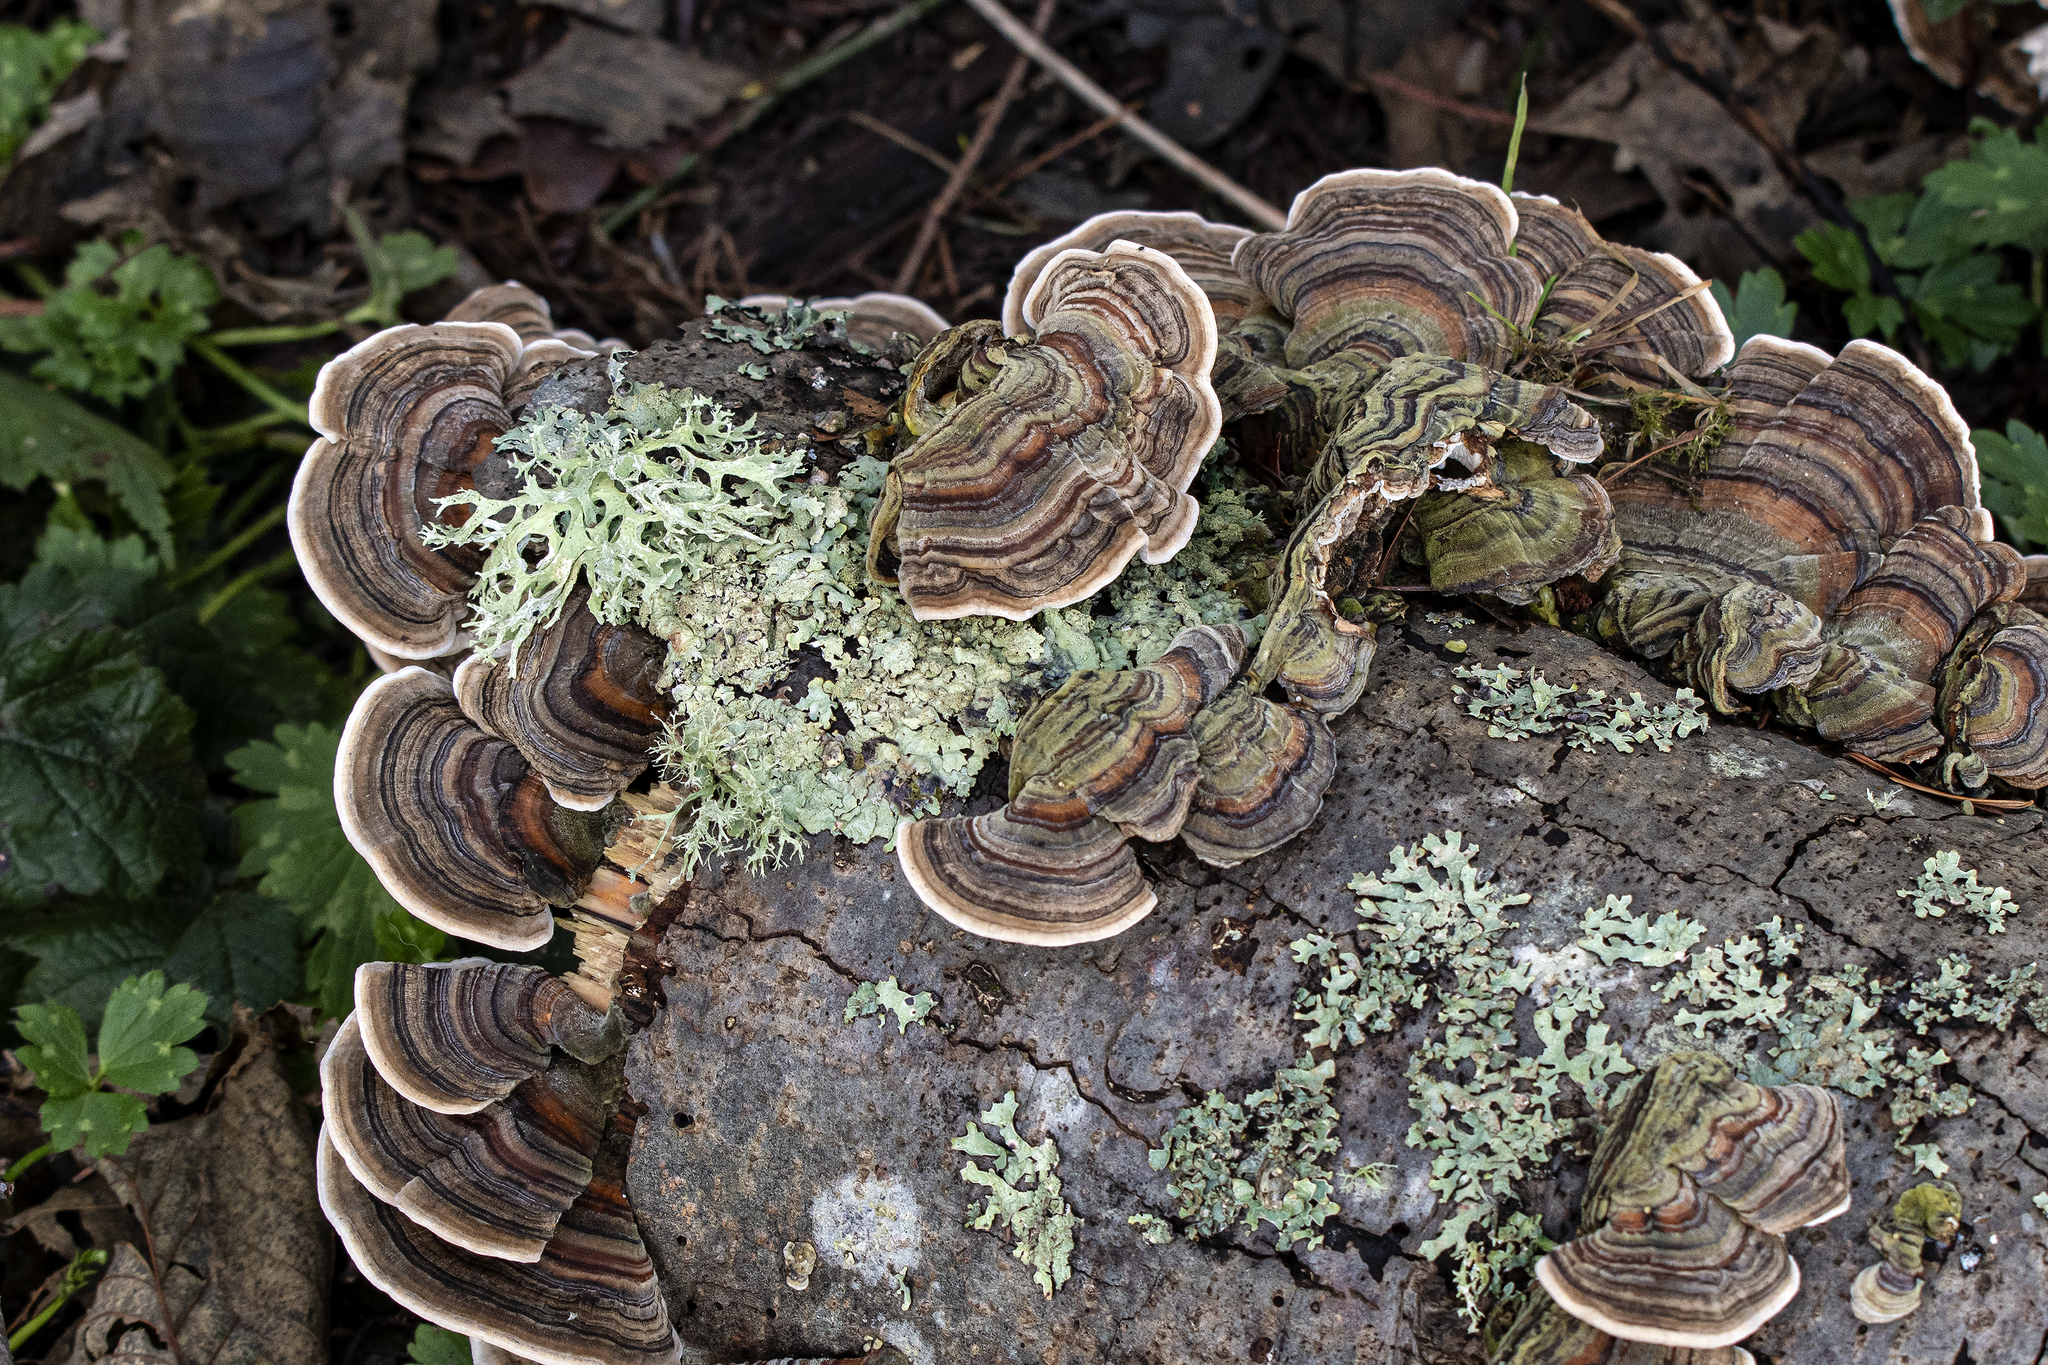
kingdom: Fungi
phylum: Basidiomycota
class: Agaricomycetes
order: Polyporales
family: Polyporaceae
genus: Trametes
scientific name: Trametes versicolor
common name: Turkeytail
